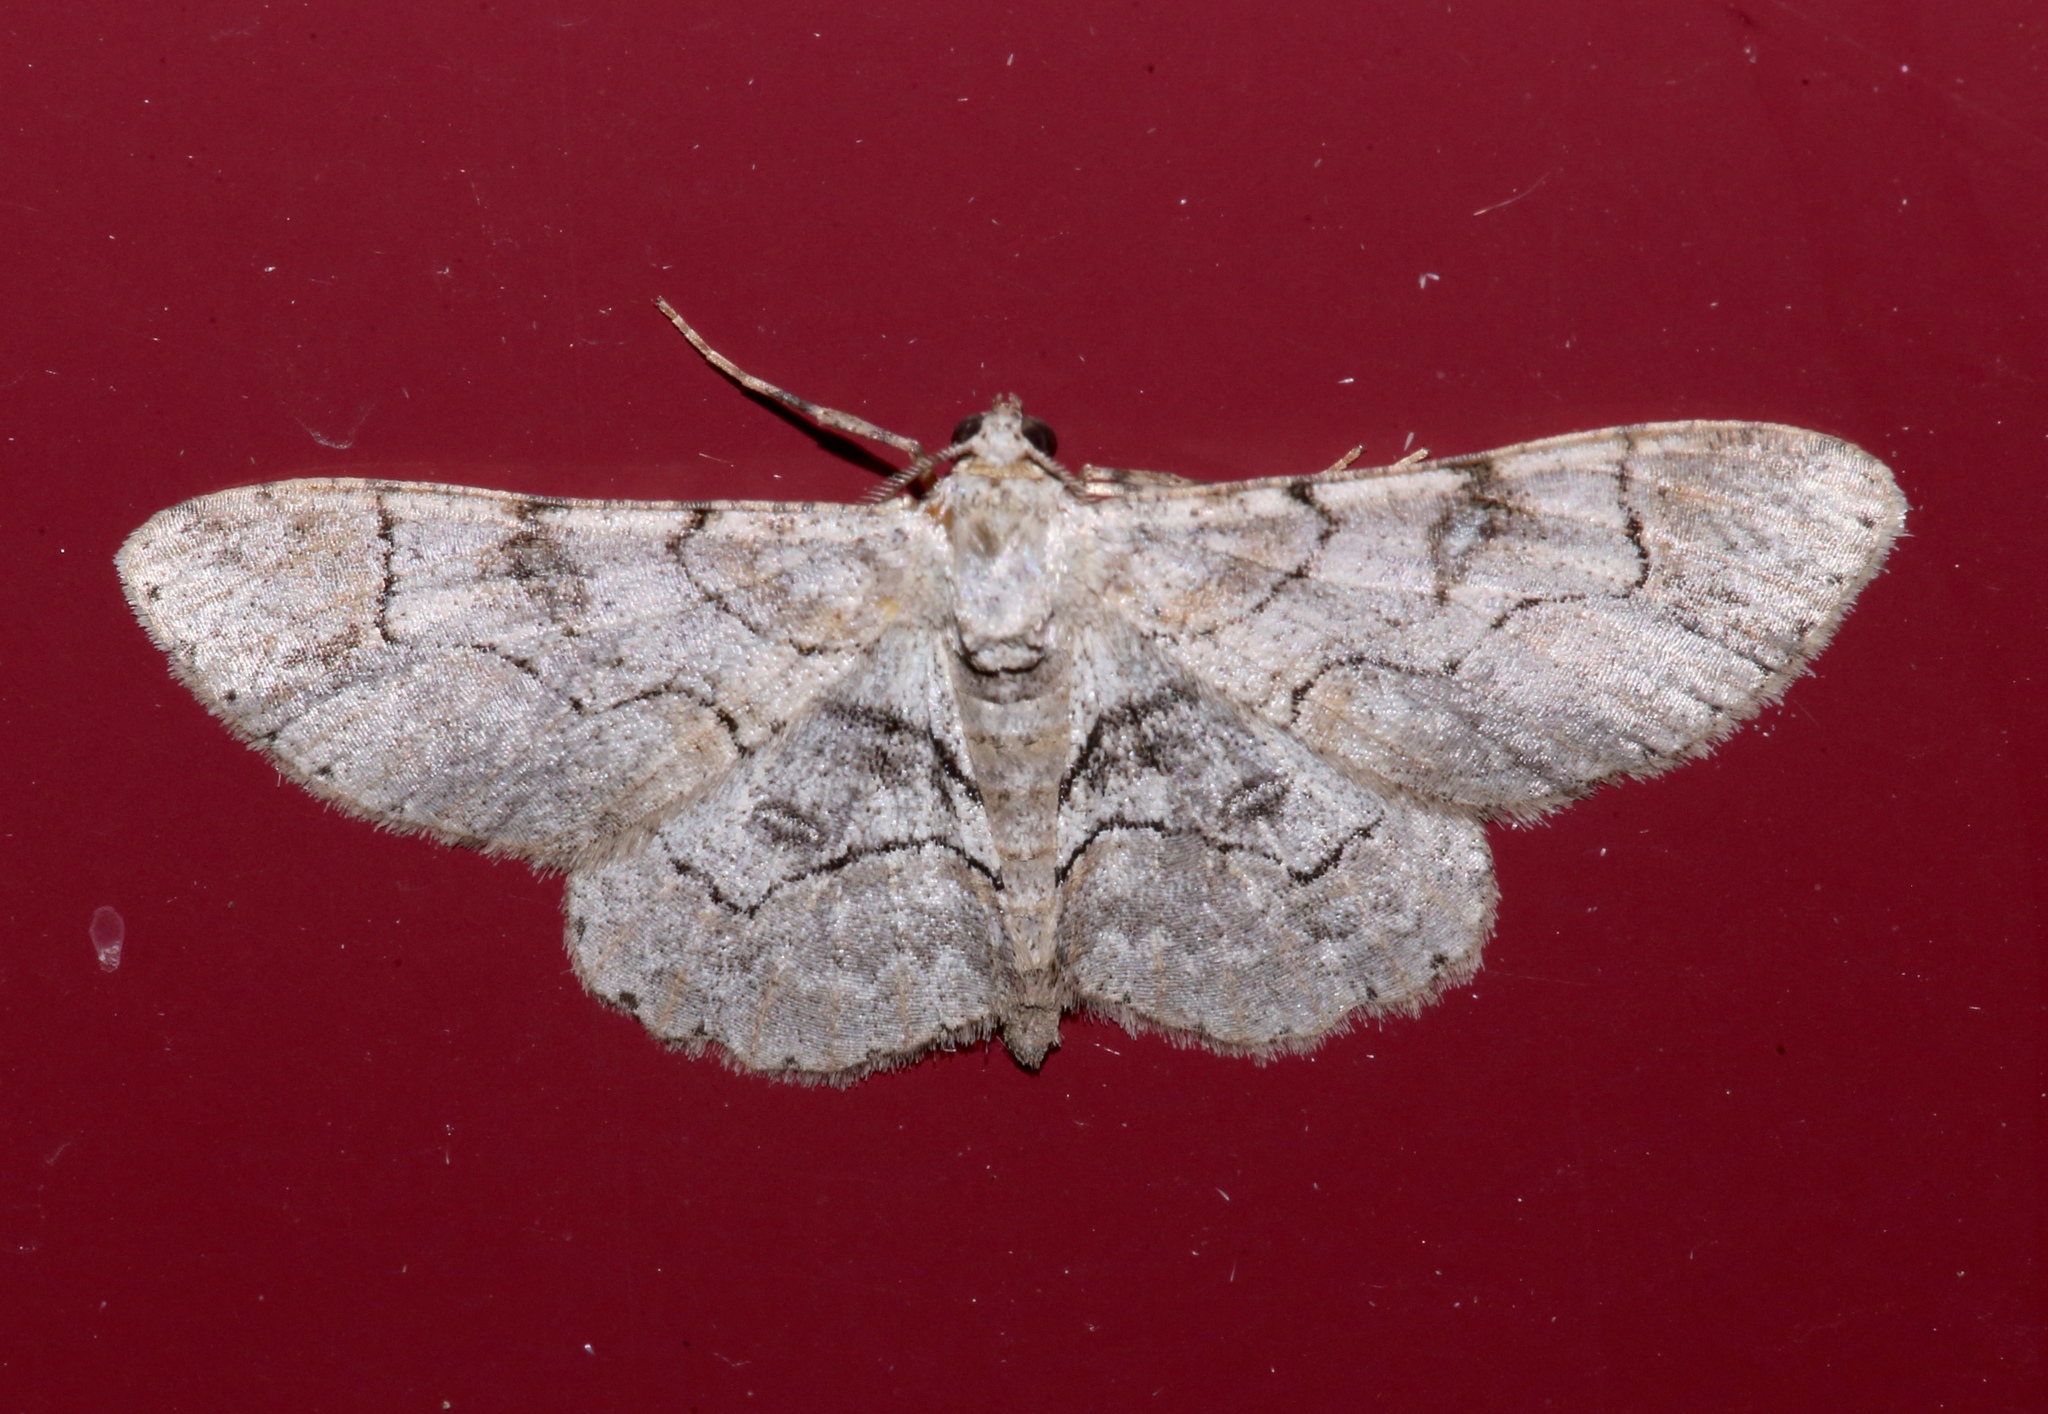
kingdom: Animalia
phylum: Arthropoda
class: Insecta
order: Lepidoptera
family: Geometridae
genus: Iridopsis
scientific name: Iridopsis larvaria
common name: Bent-line gray
